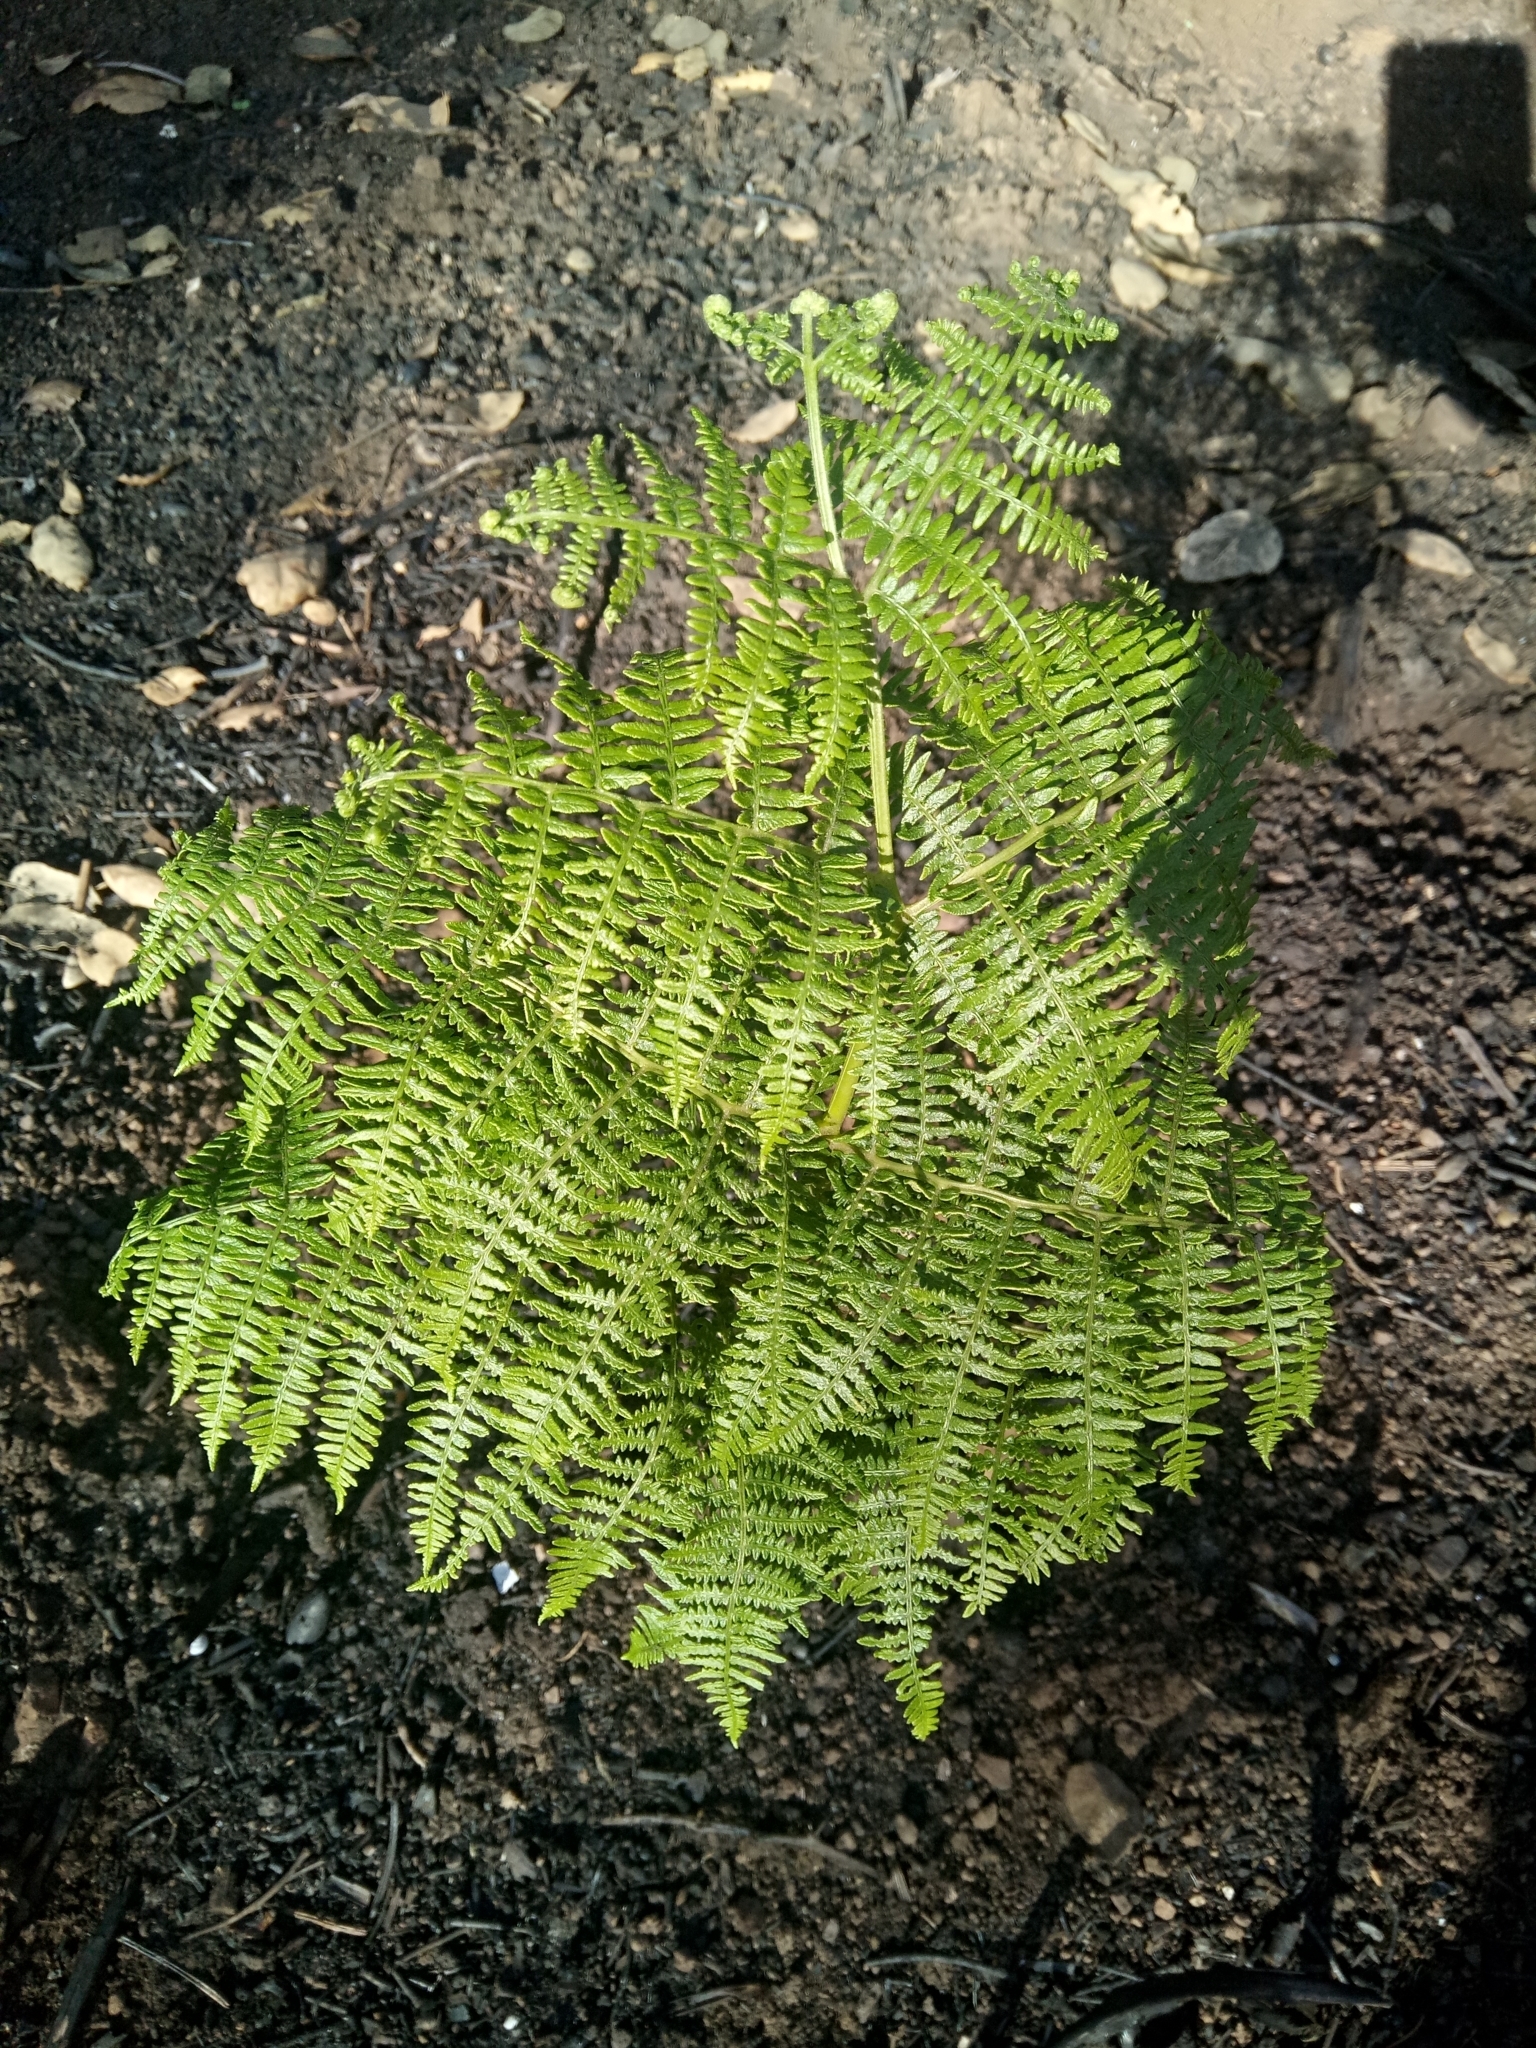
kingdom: Plantae
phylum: Tracheophyta
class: Polypodiopsida
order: Polypodiales
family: Dennstaedtiaceae
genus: Pteridium
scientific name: Pteridium aquilinum
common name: Bracken
